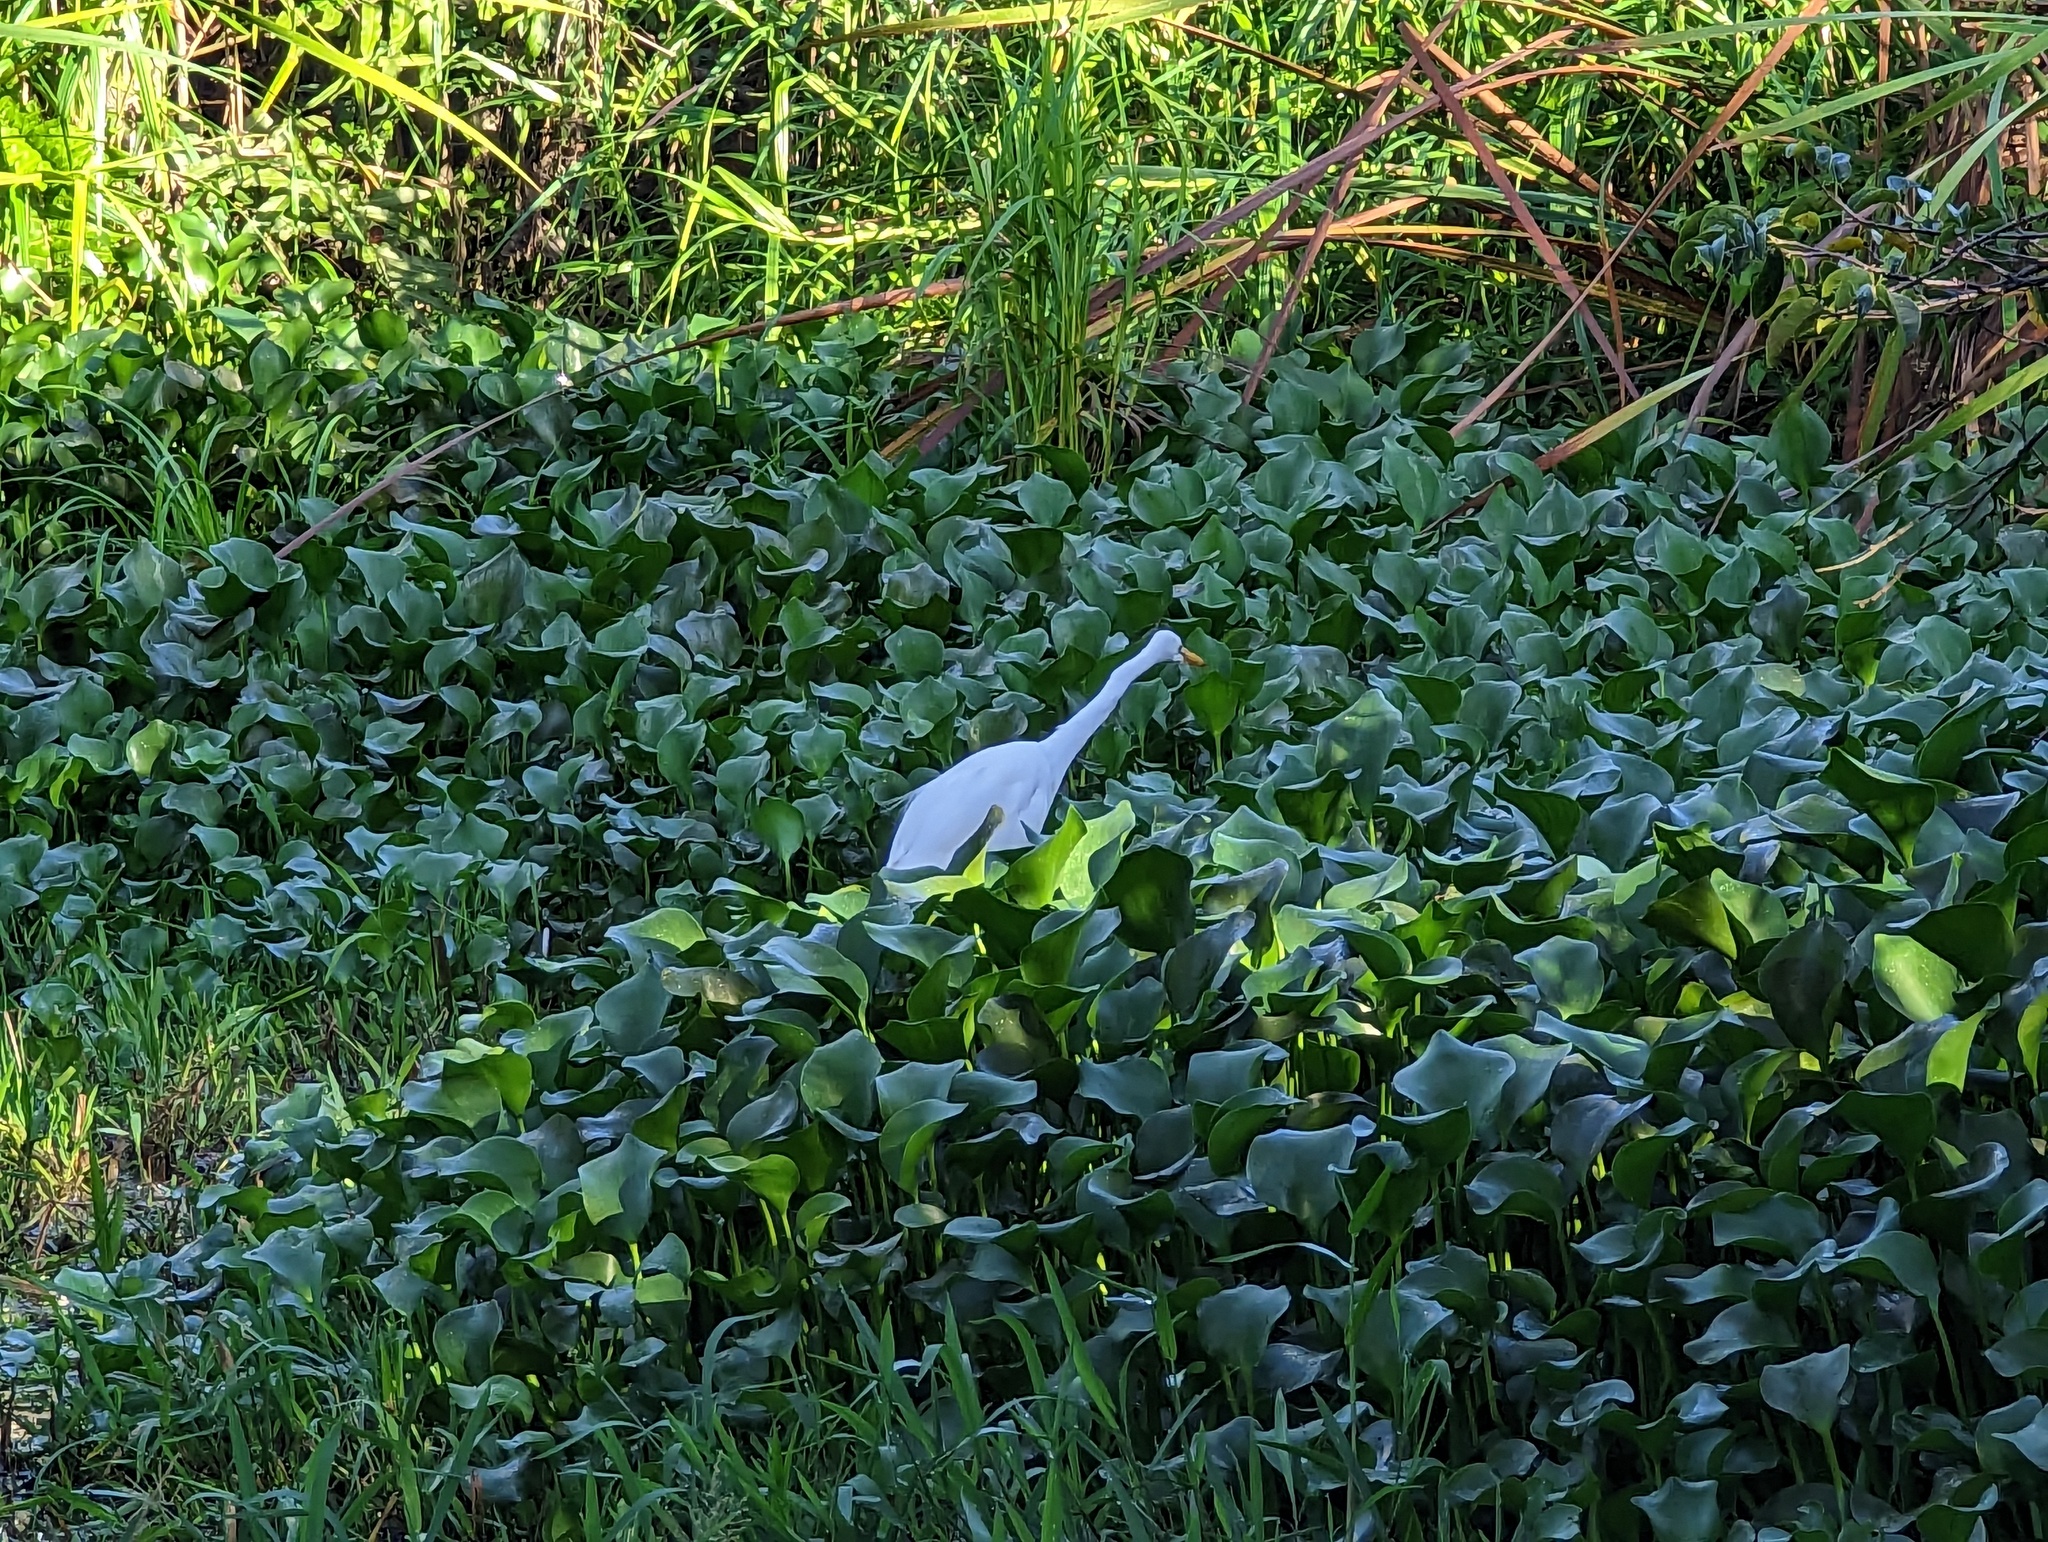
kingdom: Animalia
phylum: Chordata
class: Aves
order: Pelecaniformes
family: Ardeidae
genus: Ardea
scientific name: Ardea alba
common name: Great egret
